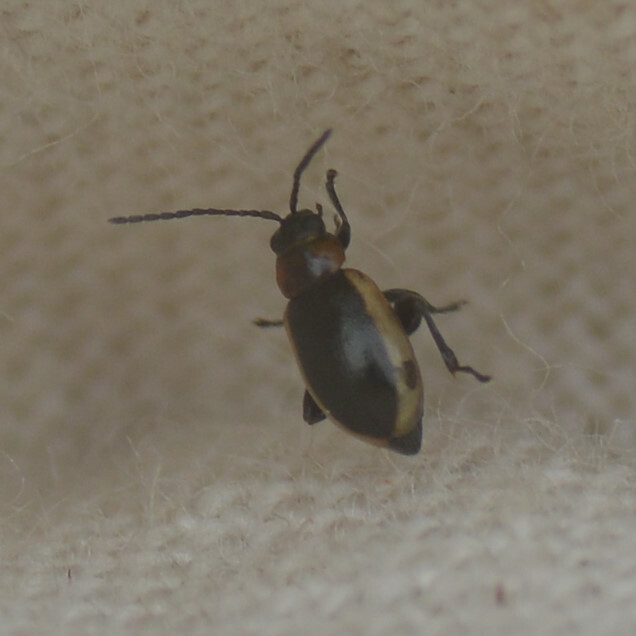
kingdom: Animalia
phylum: Arthropoda
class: Insecta
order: Coleoptera
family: Chrysomelidae
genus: Longitarsus
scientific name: Longitarsus dorsalis
